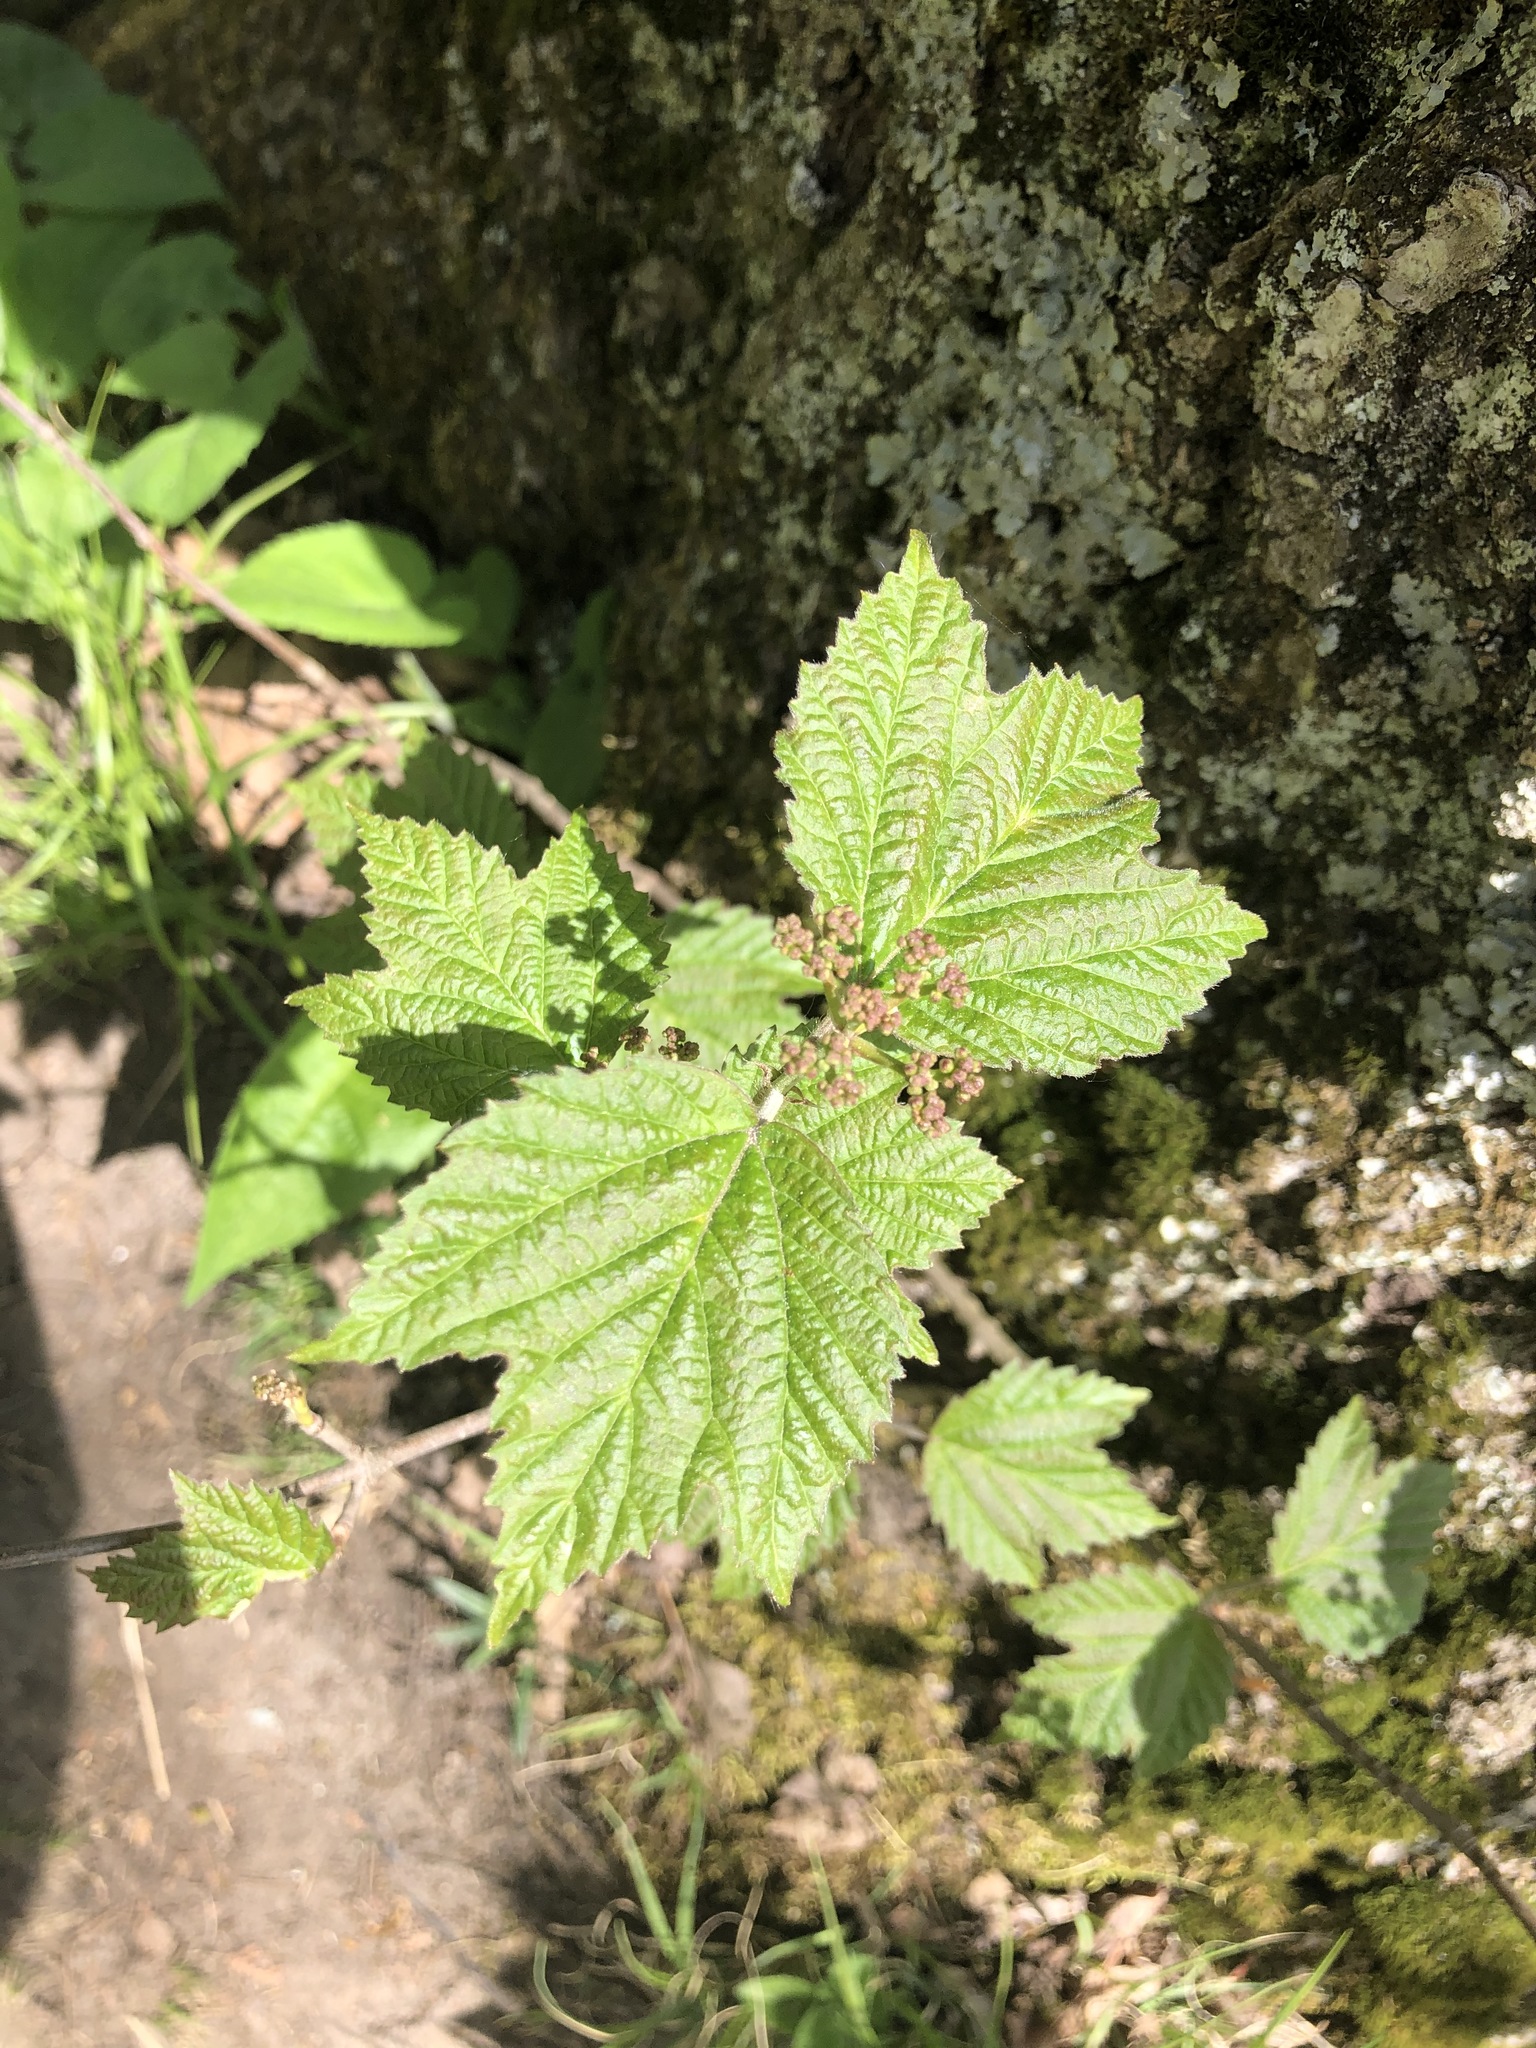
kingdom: Plantae
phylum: Tracheophyta
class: Magnoliopsida
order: Dipsacales
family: Viburnaceae
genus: Viburnum
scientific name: Viburnum acerifolium
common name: Dockmackie
